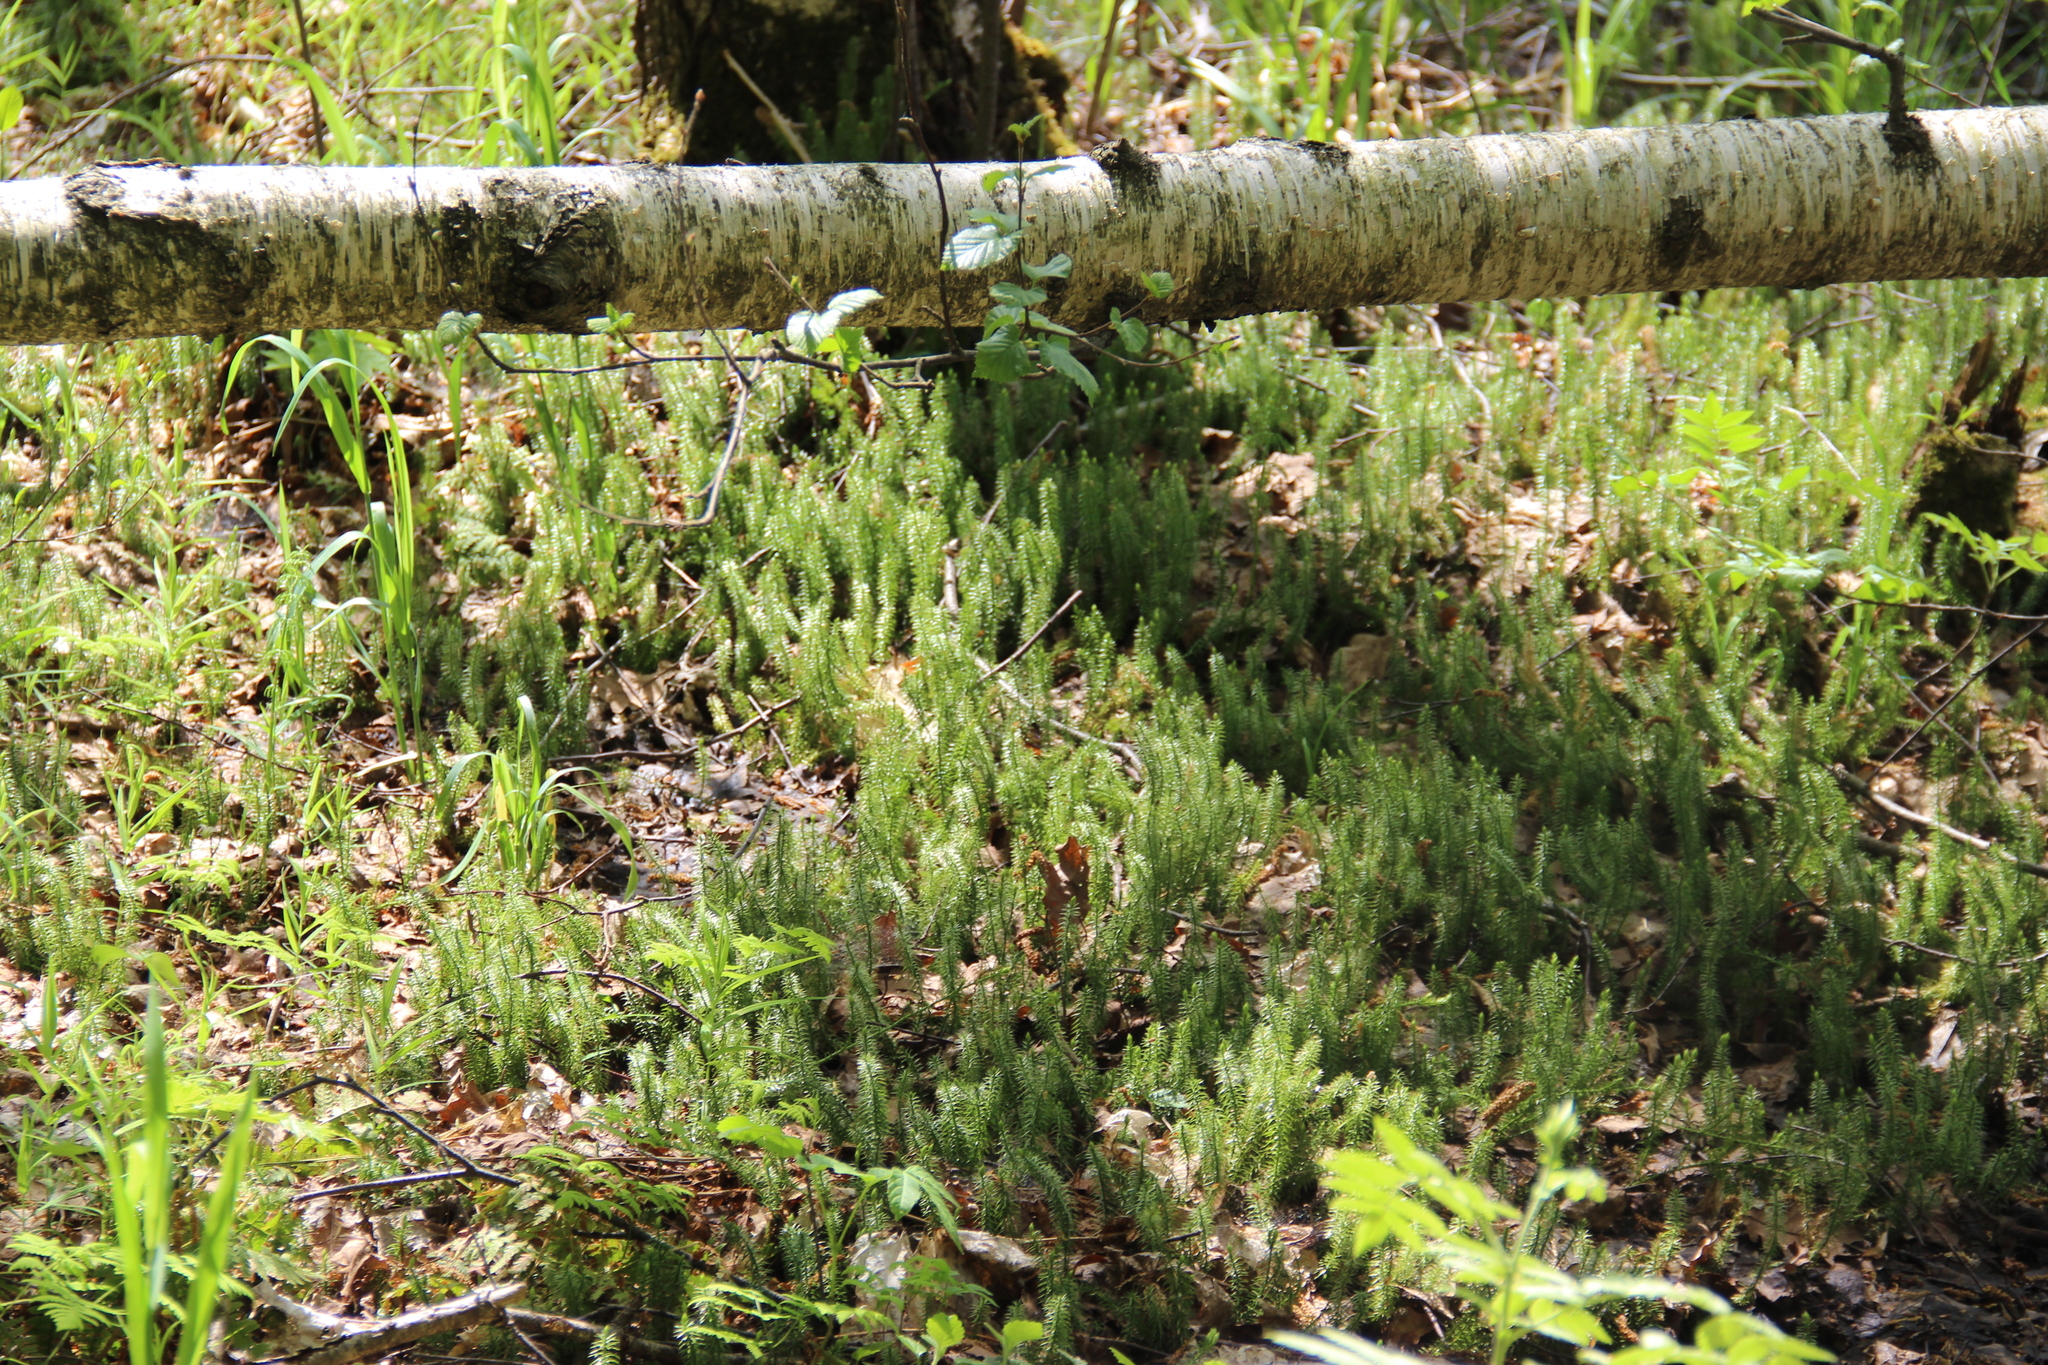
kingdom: Plantae
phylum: Tracheophyta
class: Lycopodiopsida
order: Lycopodiales
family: Lycopodiaceae
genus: Spinulum
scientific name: Spinulum annotinum
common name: Interrupted club-moss
